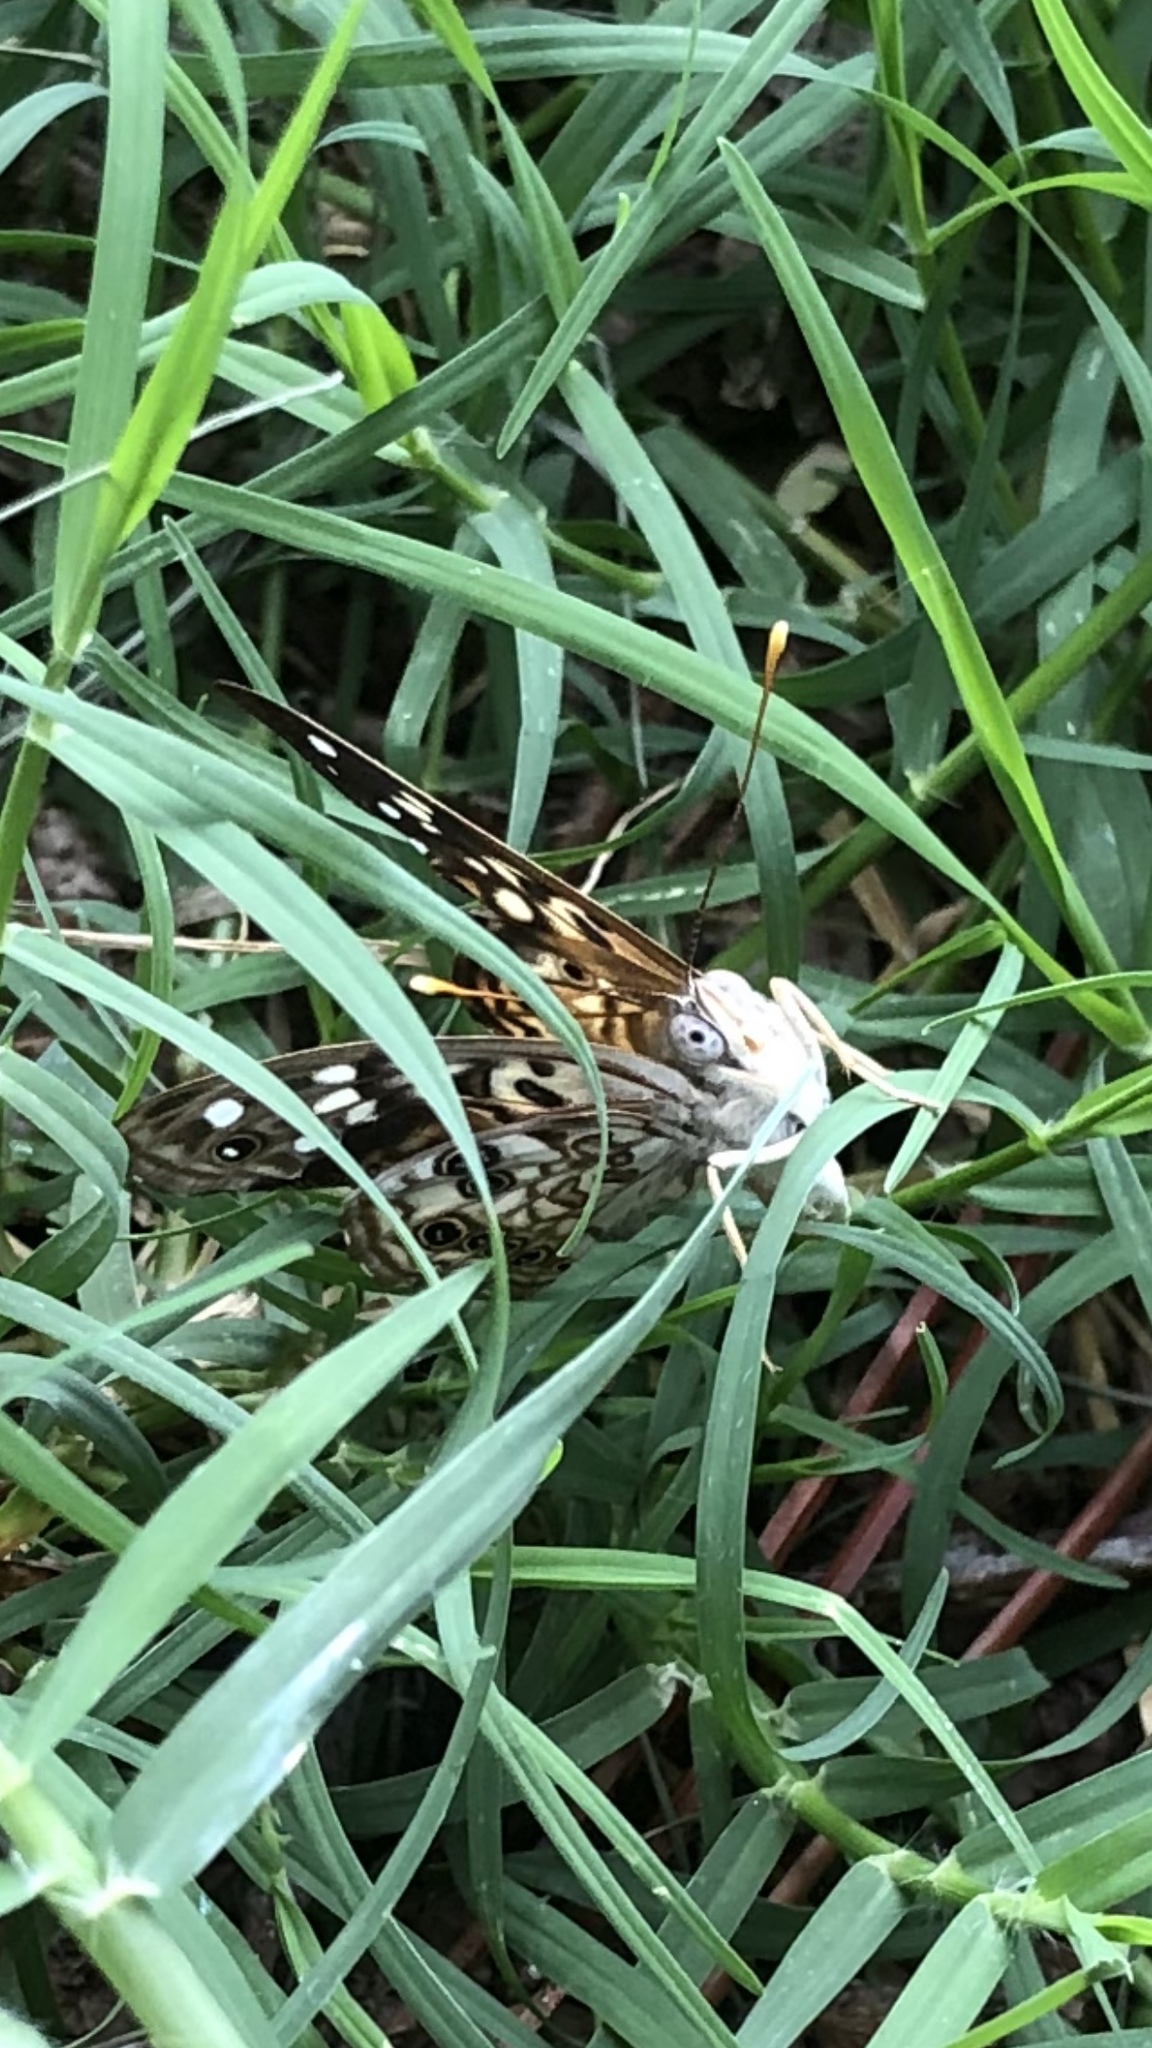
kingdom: Animalia
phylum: Arthropoda
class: Insecta
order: Lepidoptera
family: Nymphalidae
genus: Asterocampa
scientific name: Asterocampa celtis
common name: Hackberry emperor
